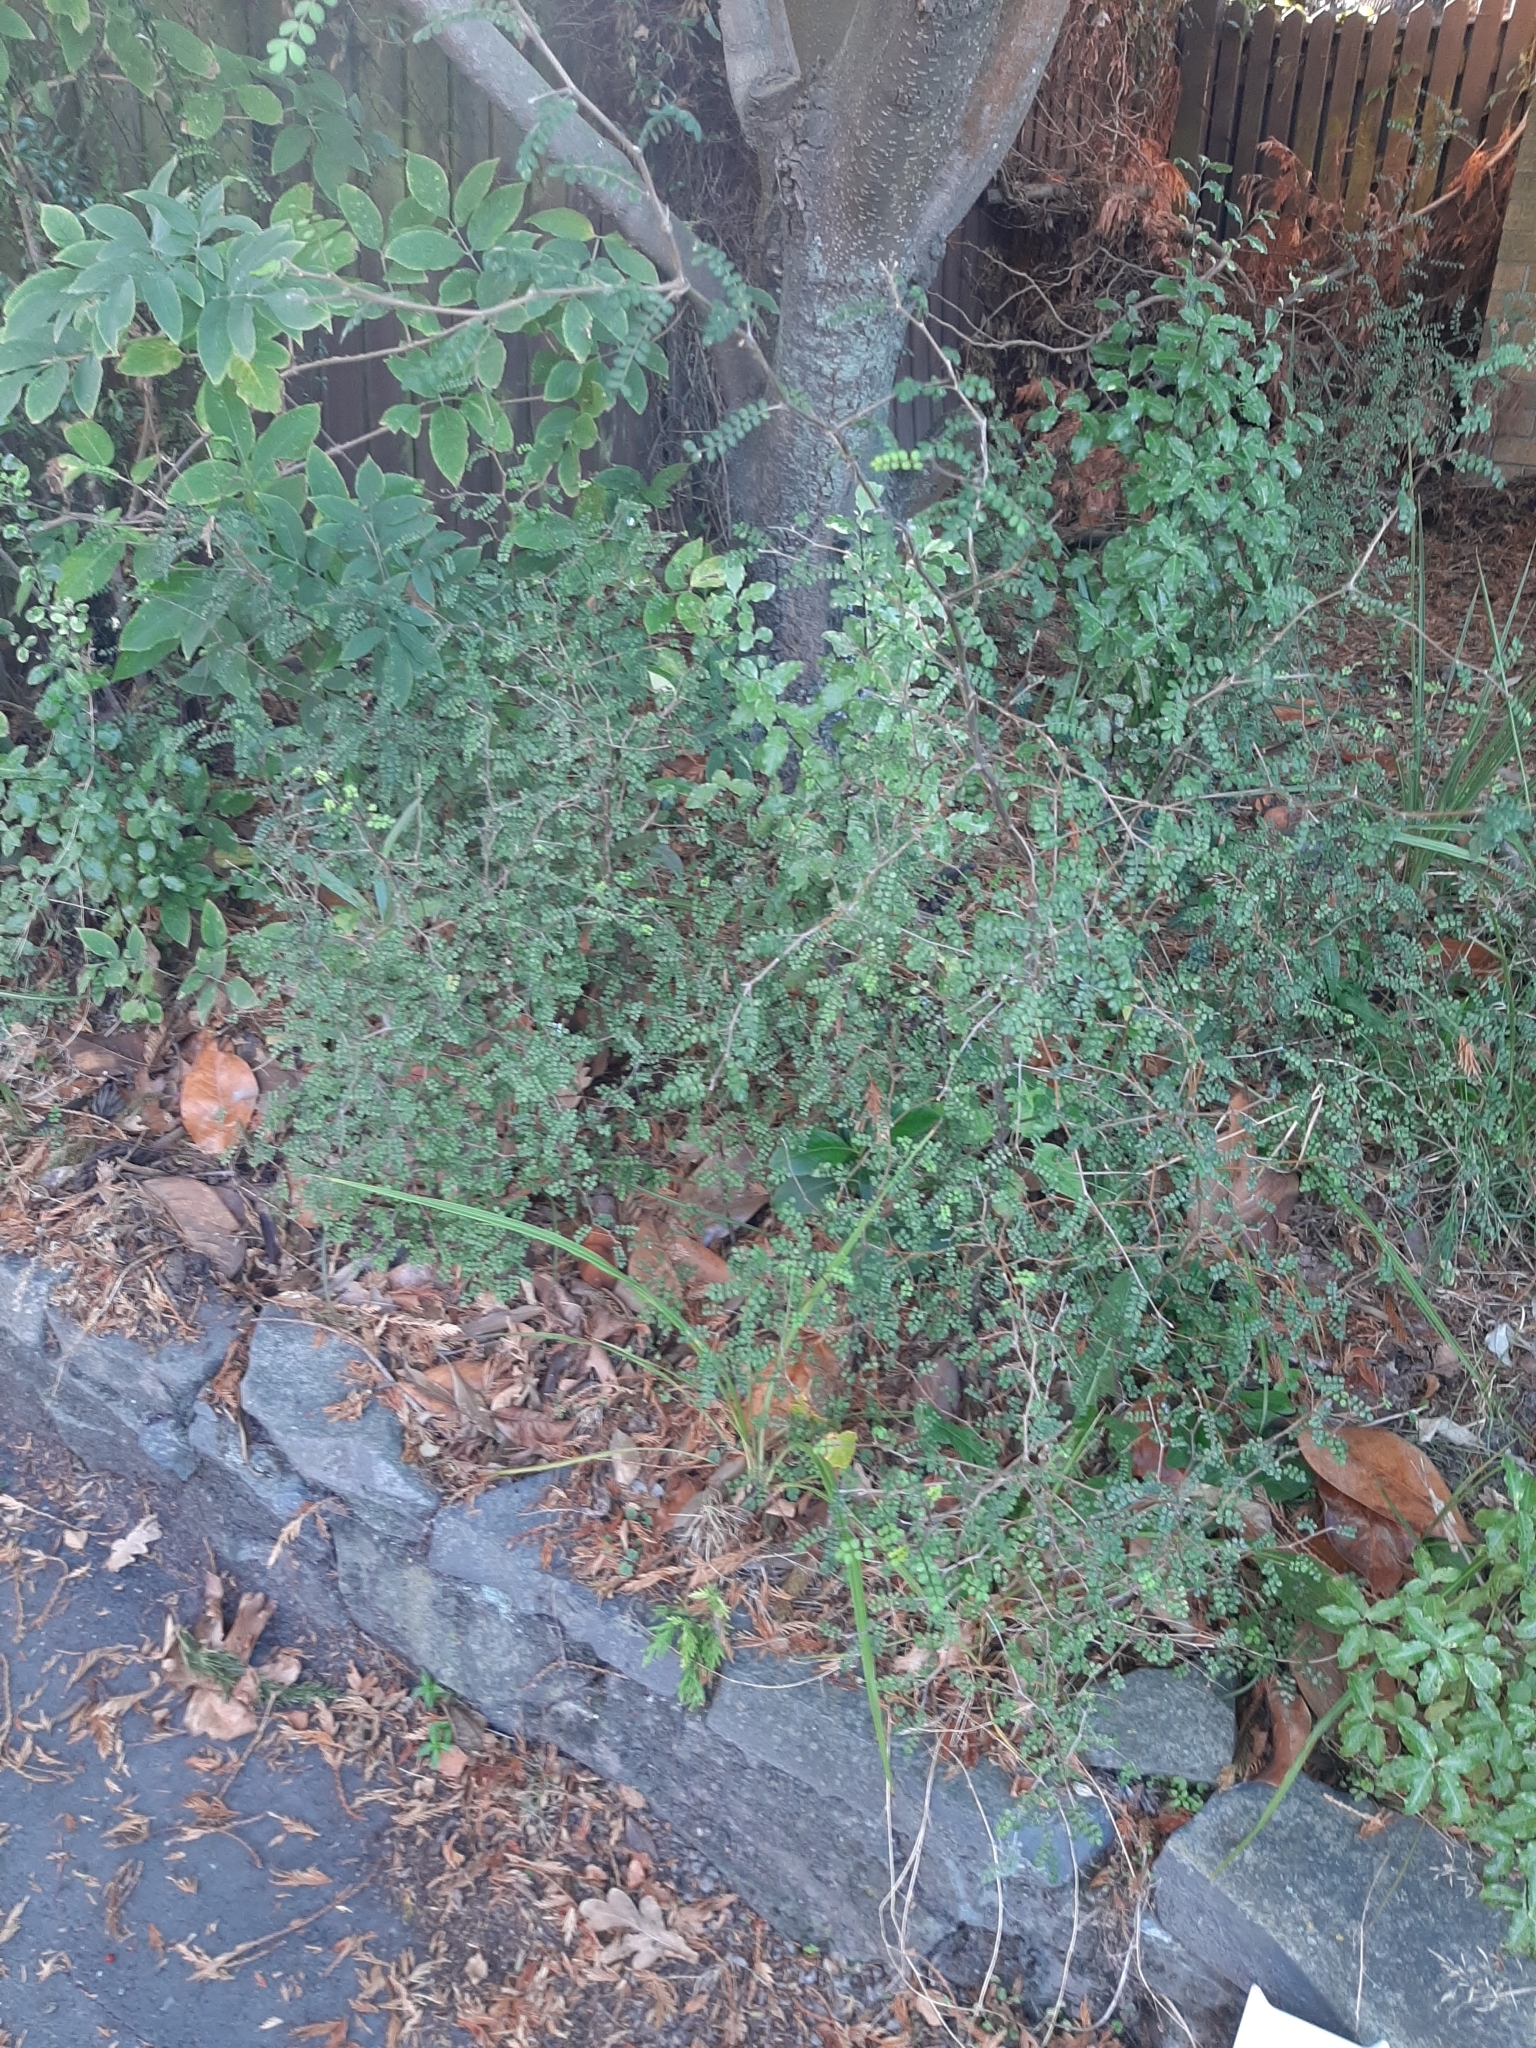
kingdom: Plantae
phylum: Tracheophyta
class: Magnoliopsida
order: Fabales
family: Fabaceae
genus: Sophora
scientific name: Sophora microphylla
